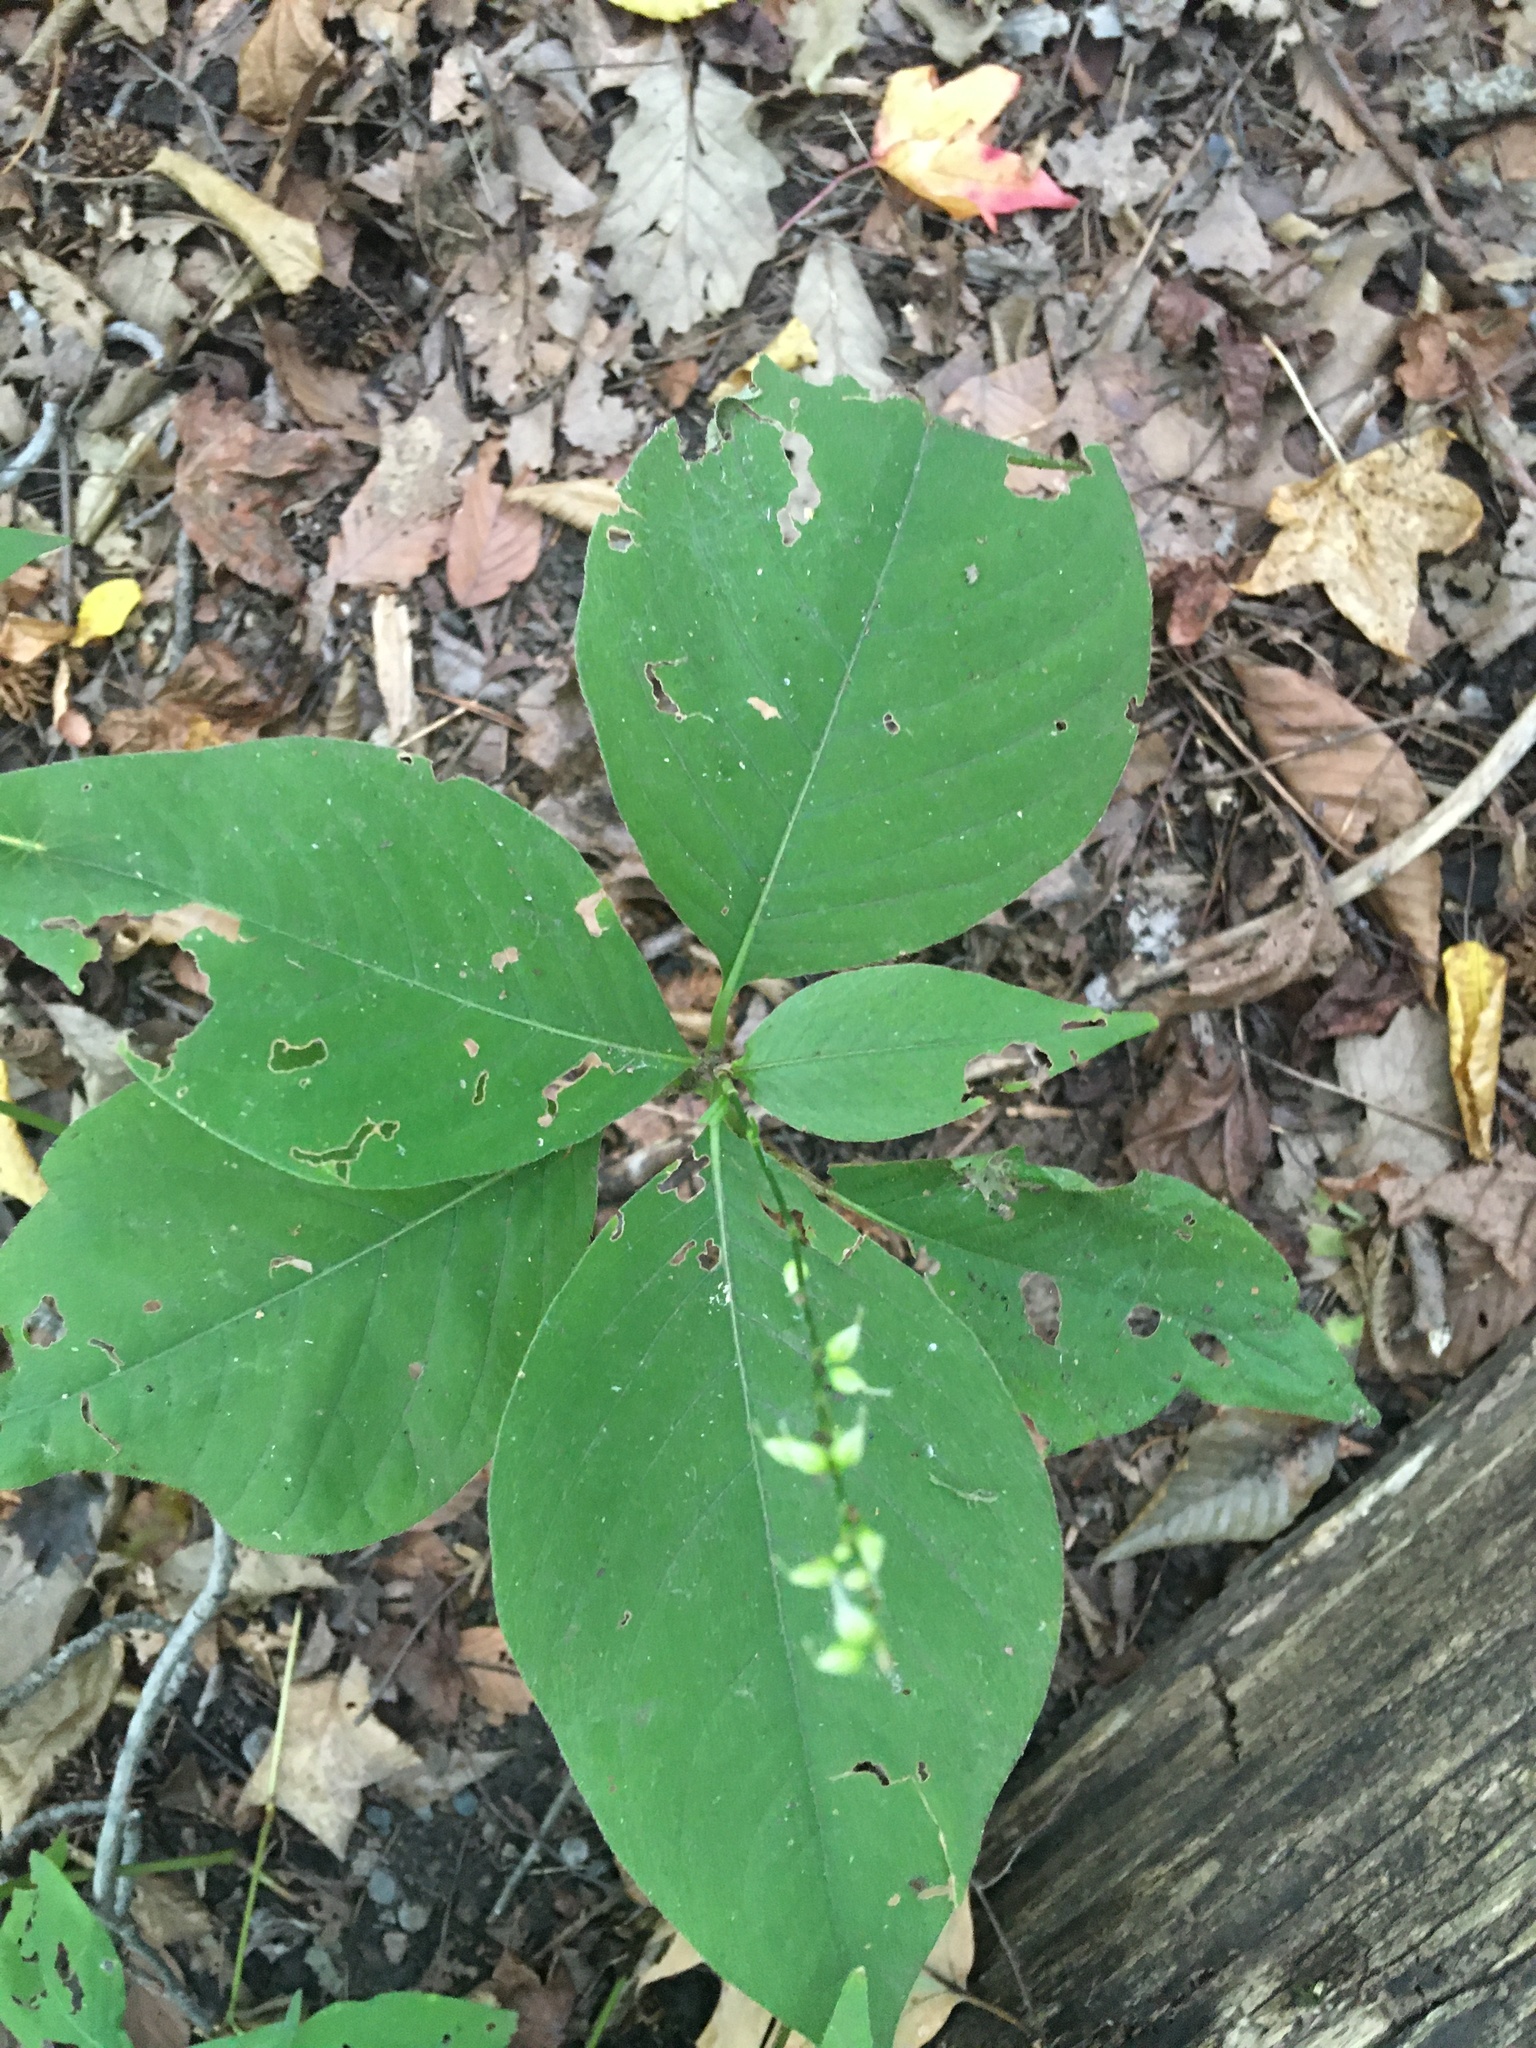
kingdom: Plantae
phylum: Tracheophyta
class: Magnoliopsida
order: Caryophyllales
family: Polygonaceae
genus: Persicaria
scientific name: Persicaria virginiana
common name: Jumpseed
